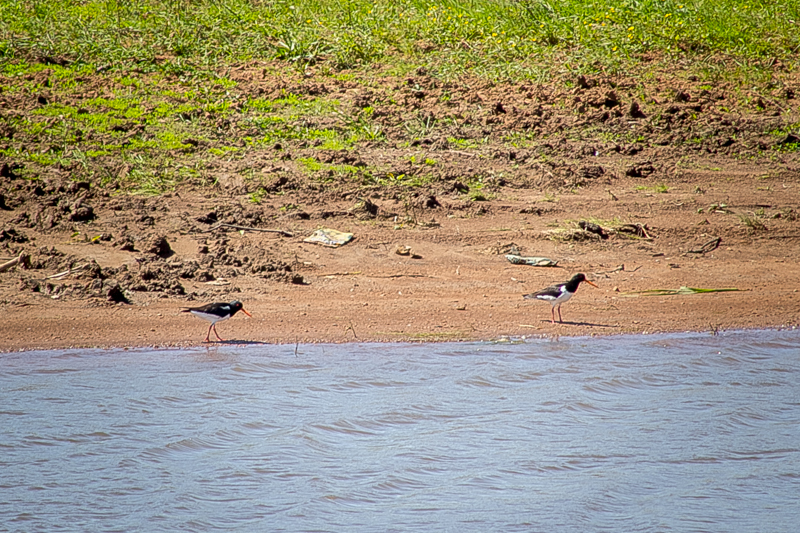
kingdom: Animalia
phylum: Chordata
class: Aves
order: Charadriiformes
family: Haematopodidae
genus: Haematopus
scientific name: Haematopus ostralegus
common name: Eurasian oystercatcher
